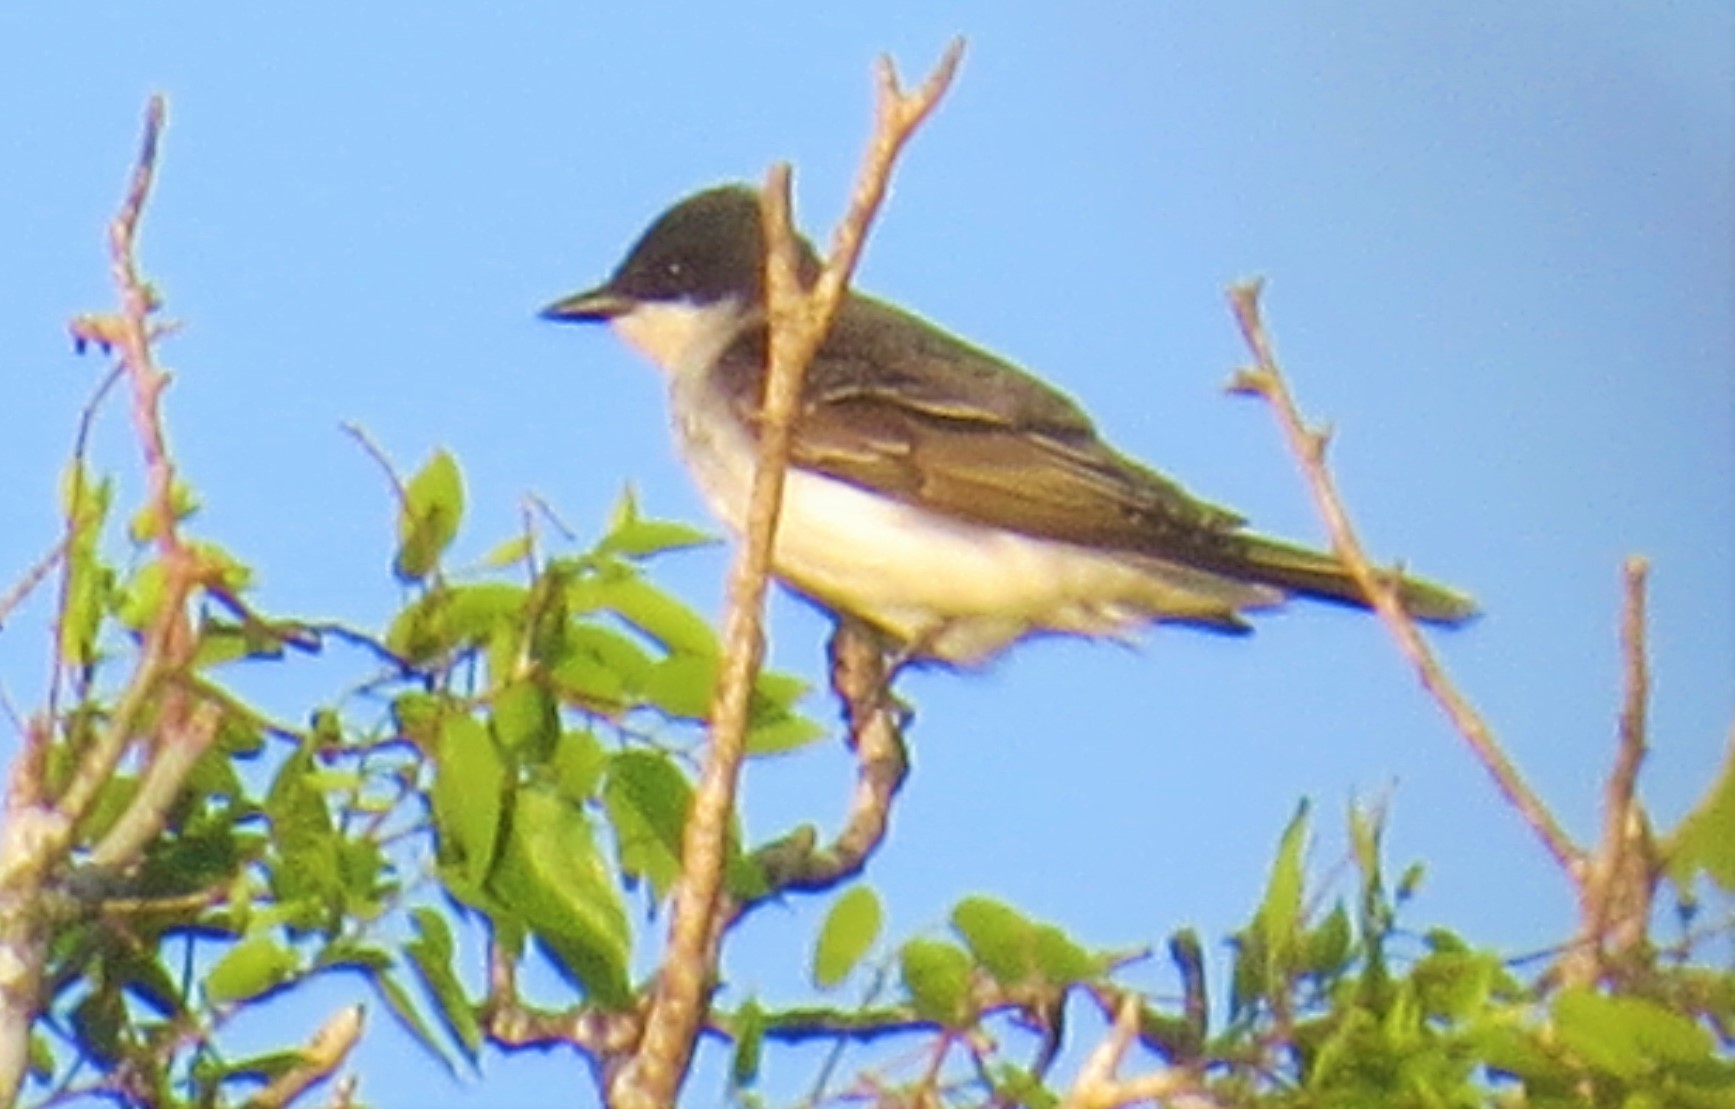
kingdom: Animalia
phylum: Chordata
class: Aves
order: Passeriformes
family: Tyrannidae
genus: Tyrannus
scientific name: Tyrannus tyrannus
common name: Eastern kingbird
